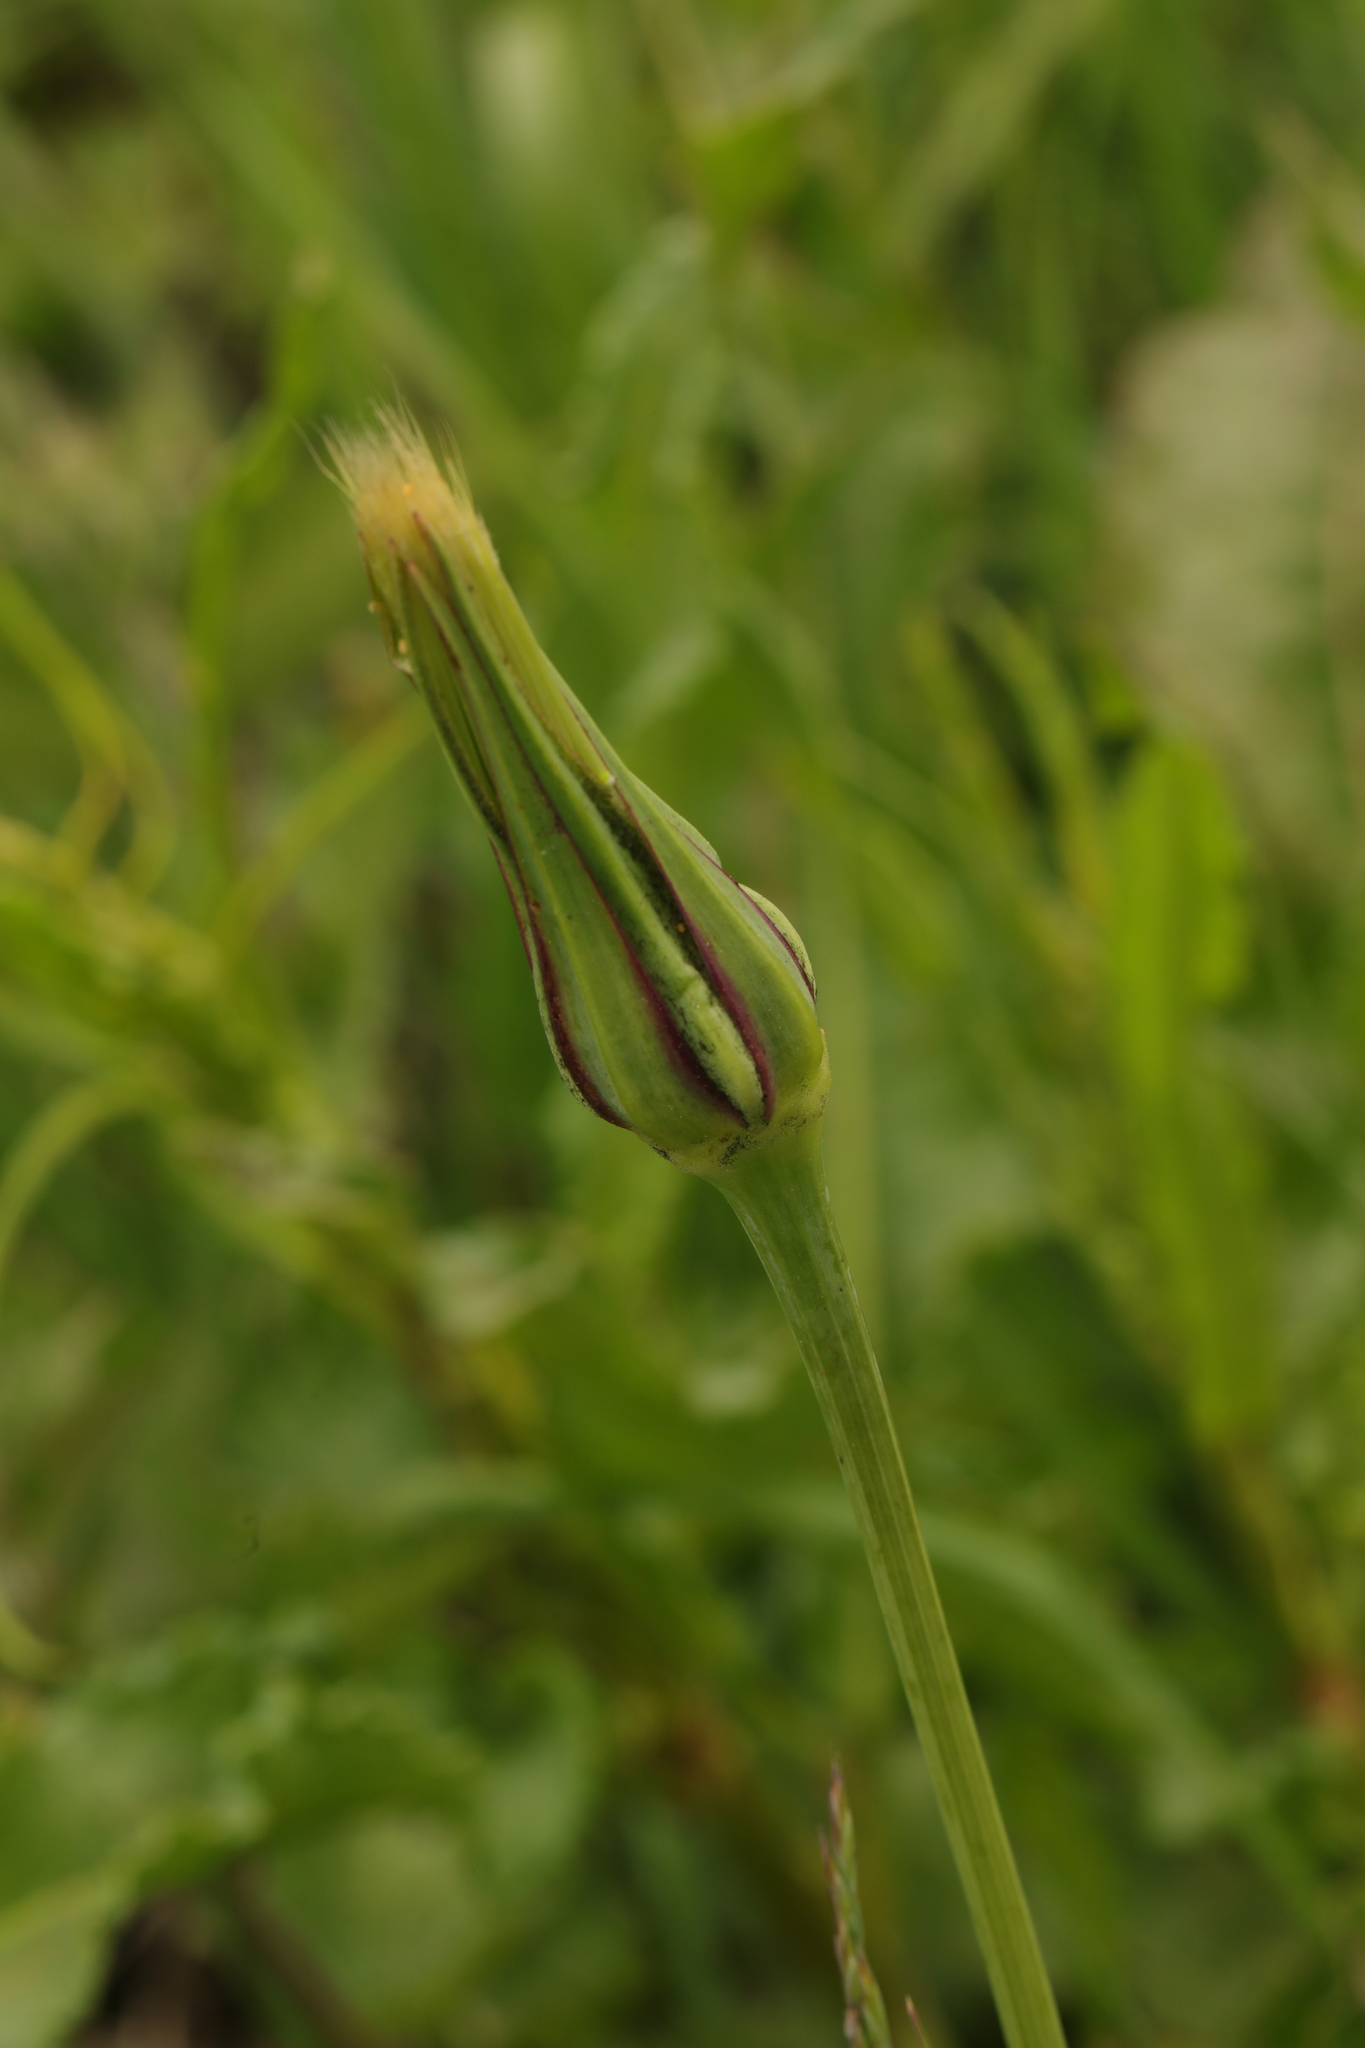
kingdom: Plantae
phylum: Tracheophyta
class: Magnoliopsida
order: Asterales
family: Asteraceae
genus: Tragopogon
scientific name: Tragopogon pratensis
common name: Goat's-beard
